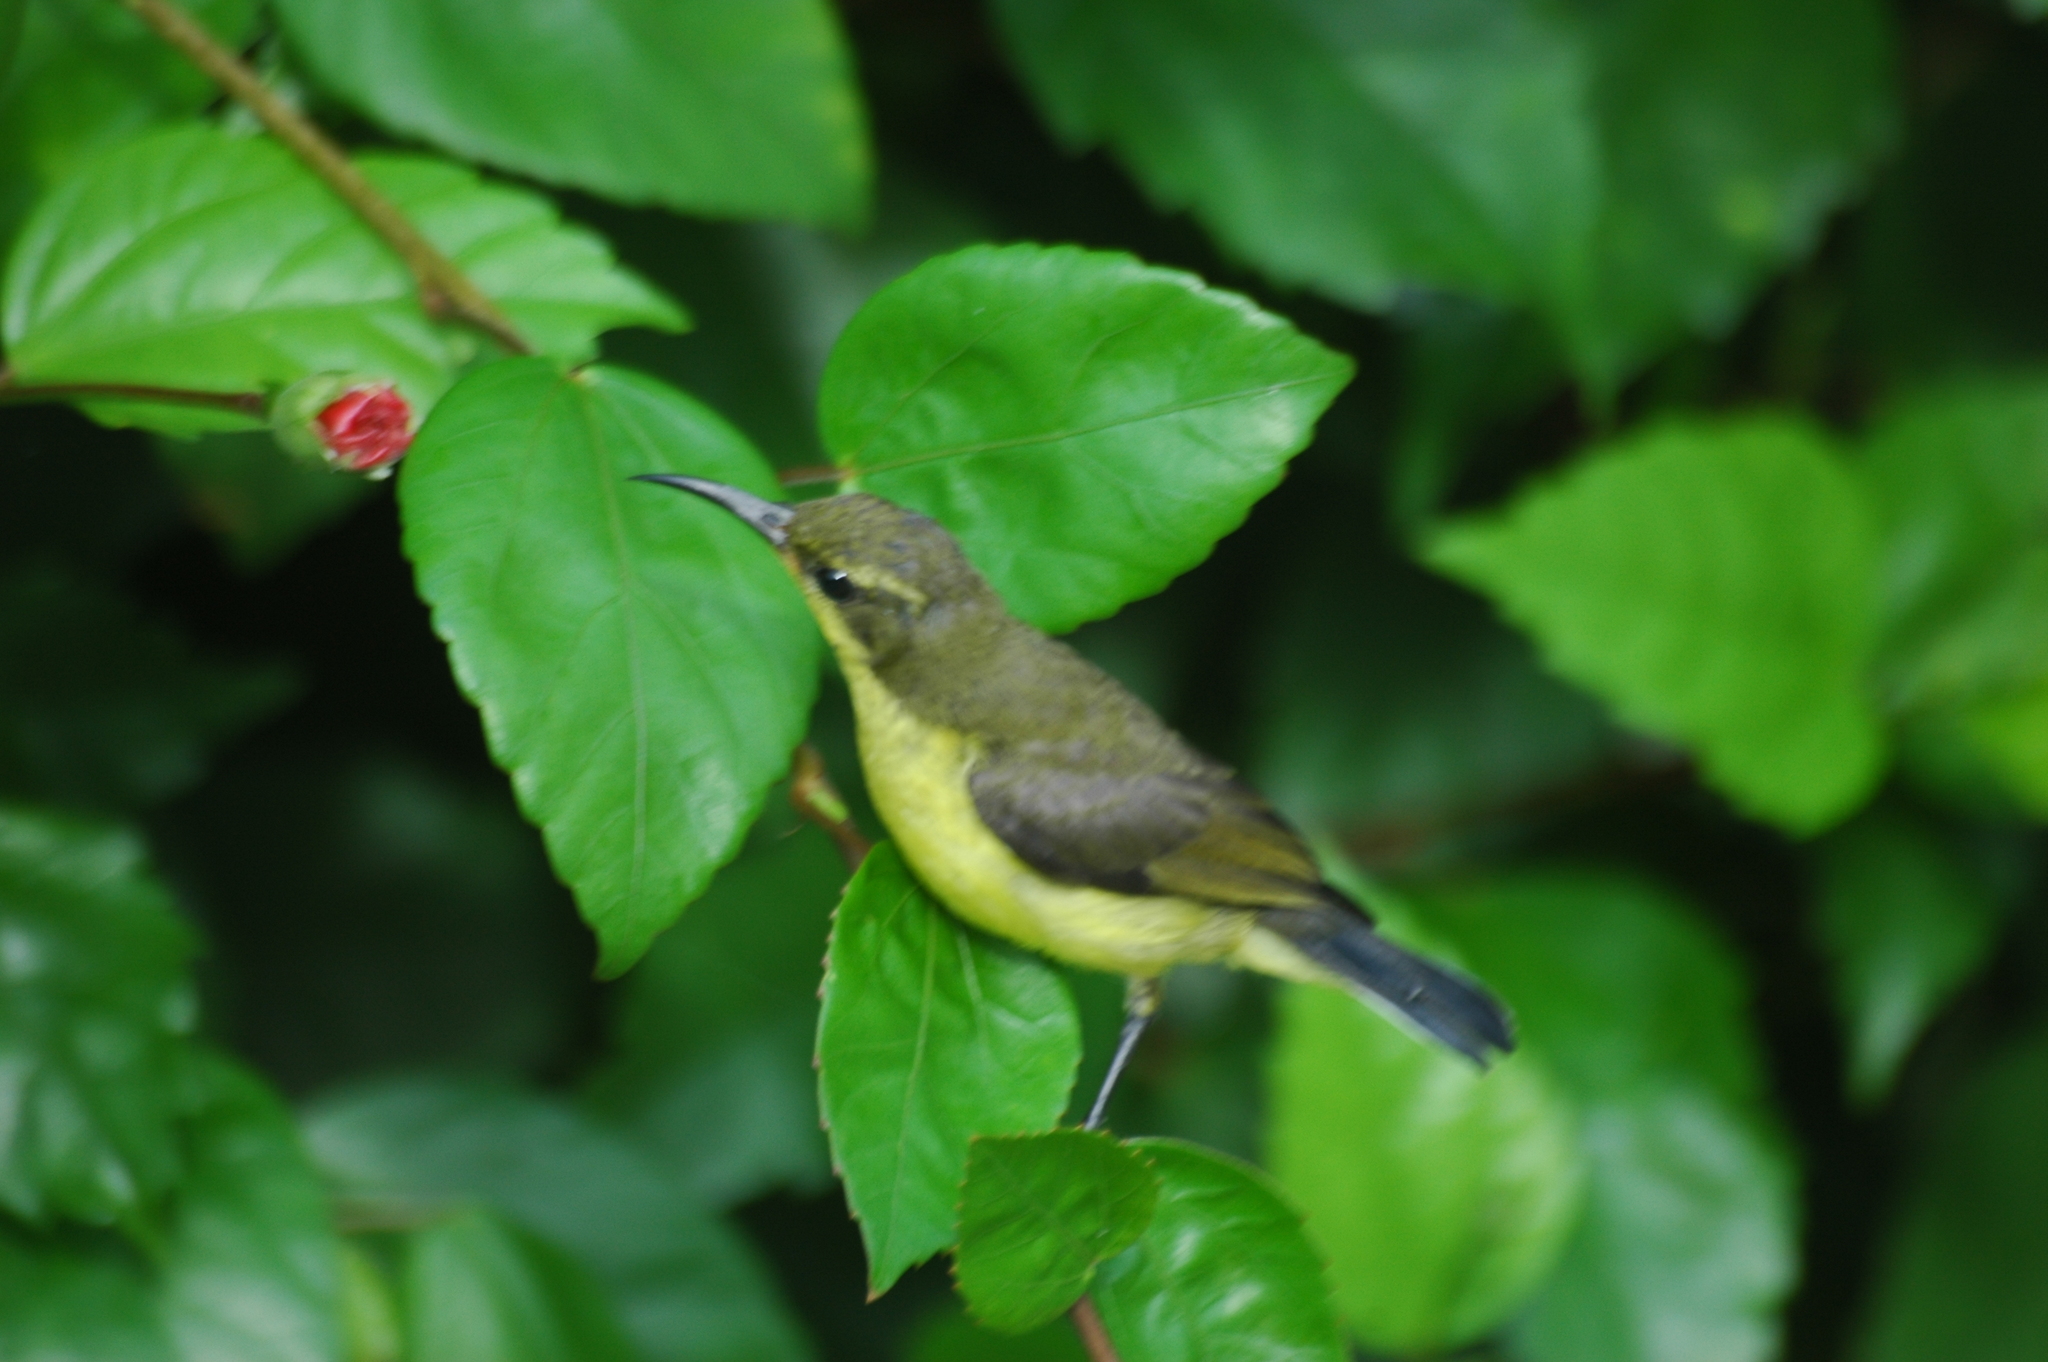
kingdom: Animalia
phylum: Chordata
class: Aves
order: Passeriformes
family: Nectariniidae
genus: Cinnyris
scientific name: Cinnyris
